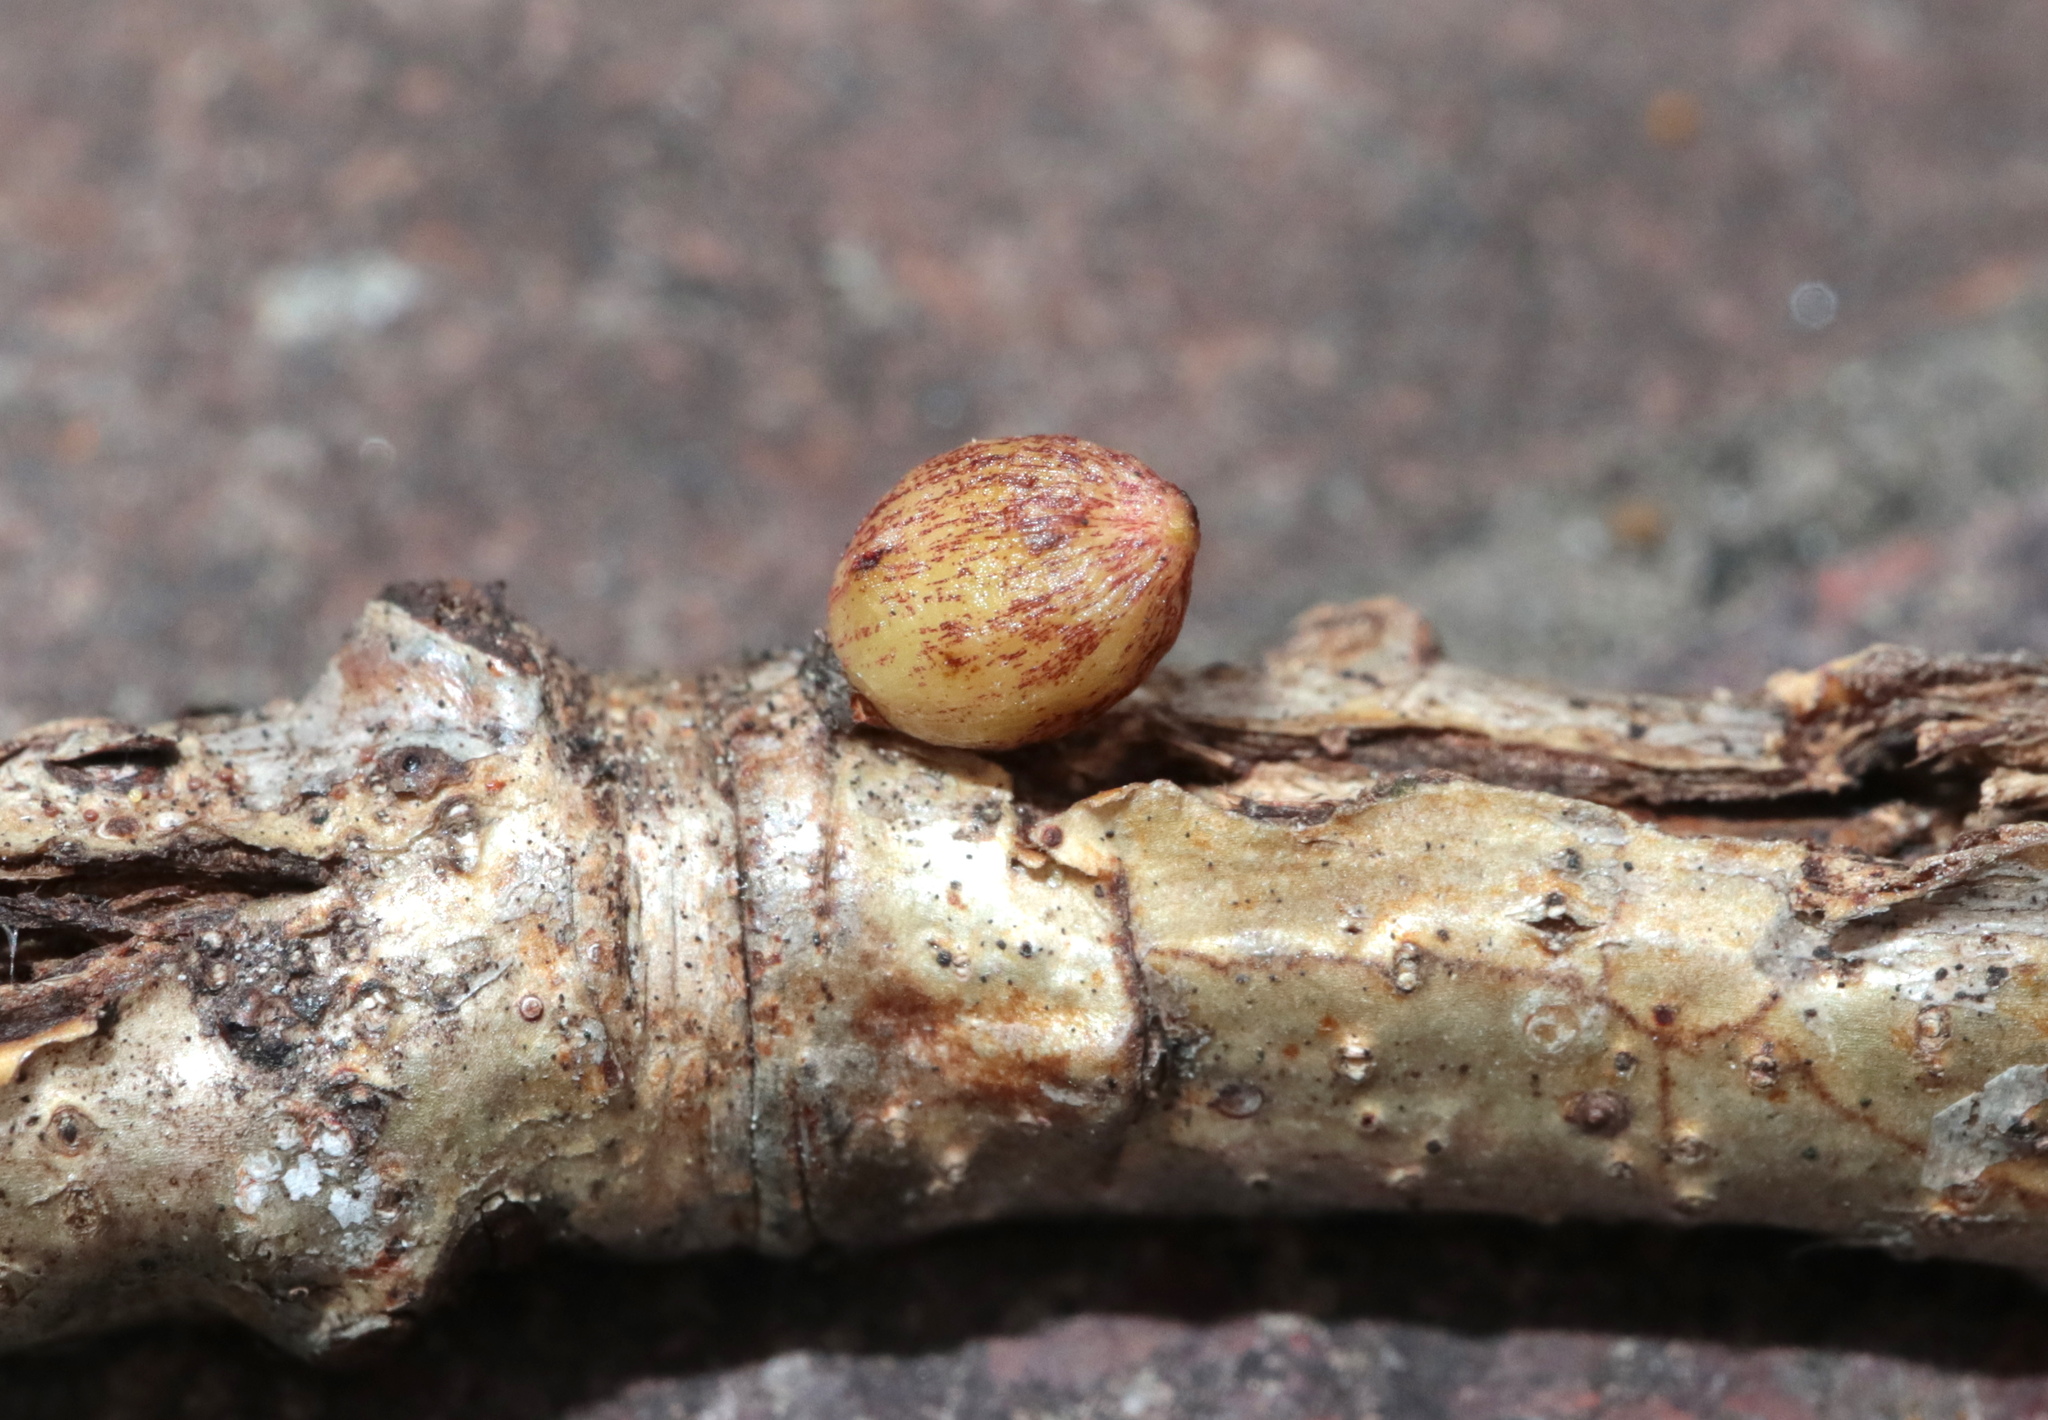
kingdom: Animalia
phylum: Arthropoda
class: Insecta
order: Hymenoptera
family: Cynipidae
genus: Andricus
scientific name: Andricus
